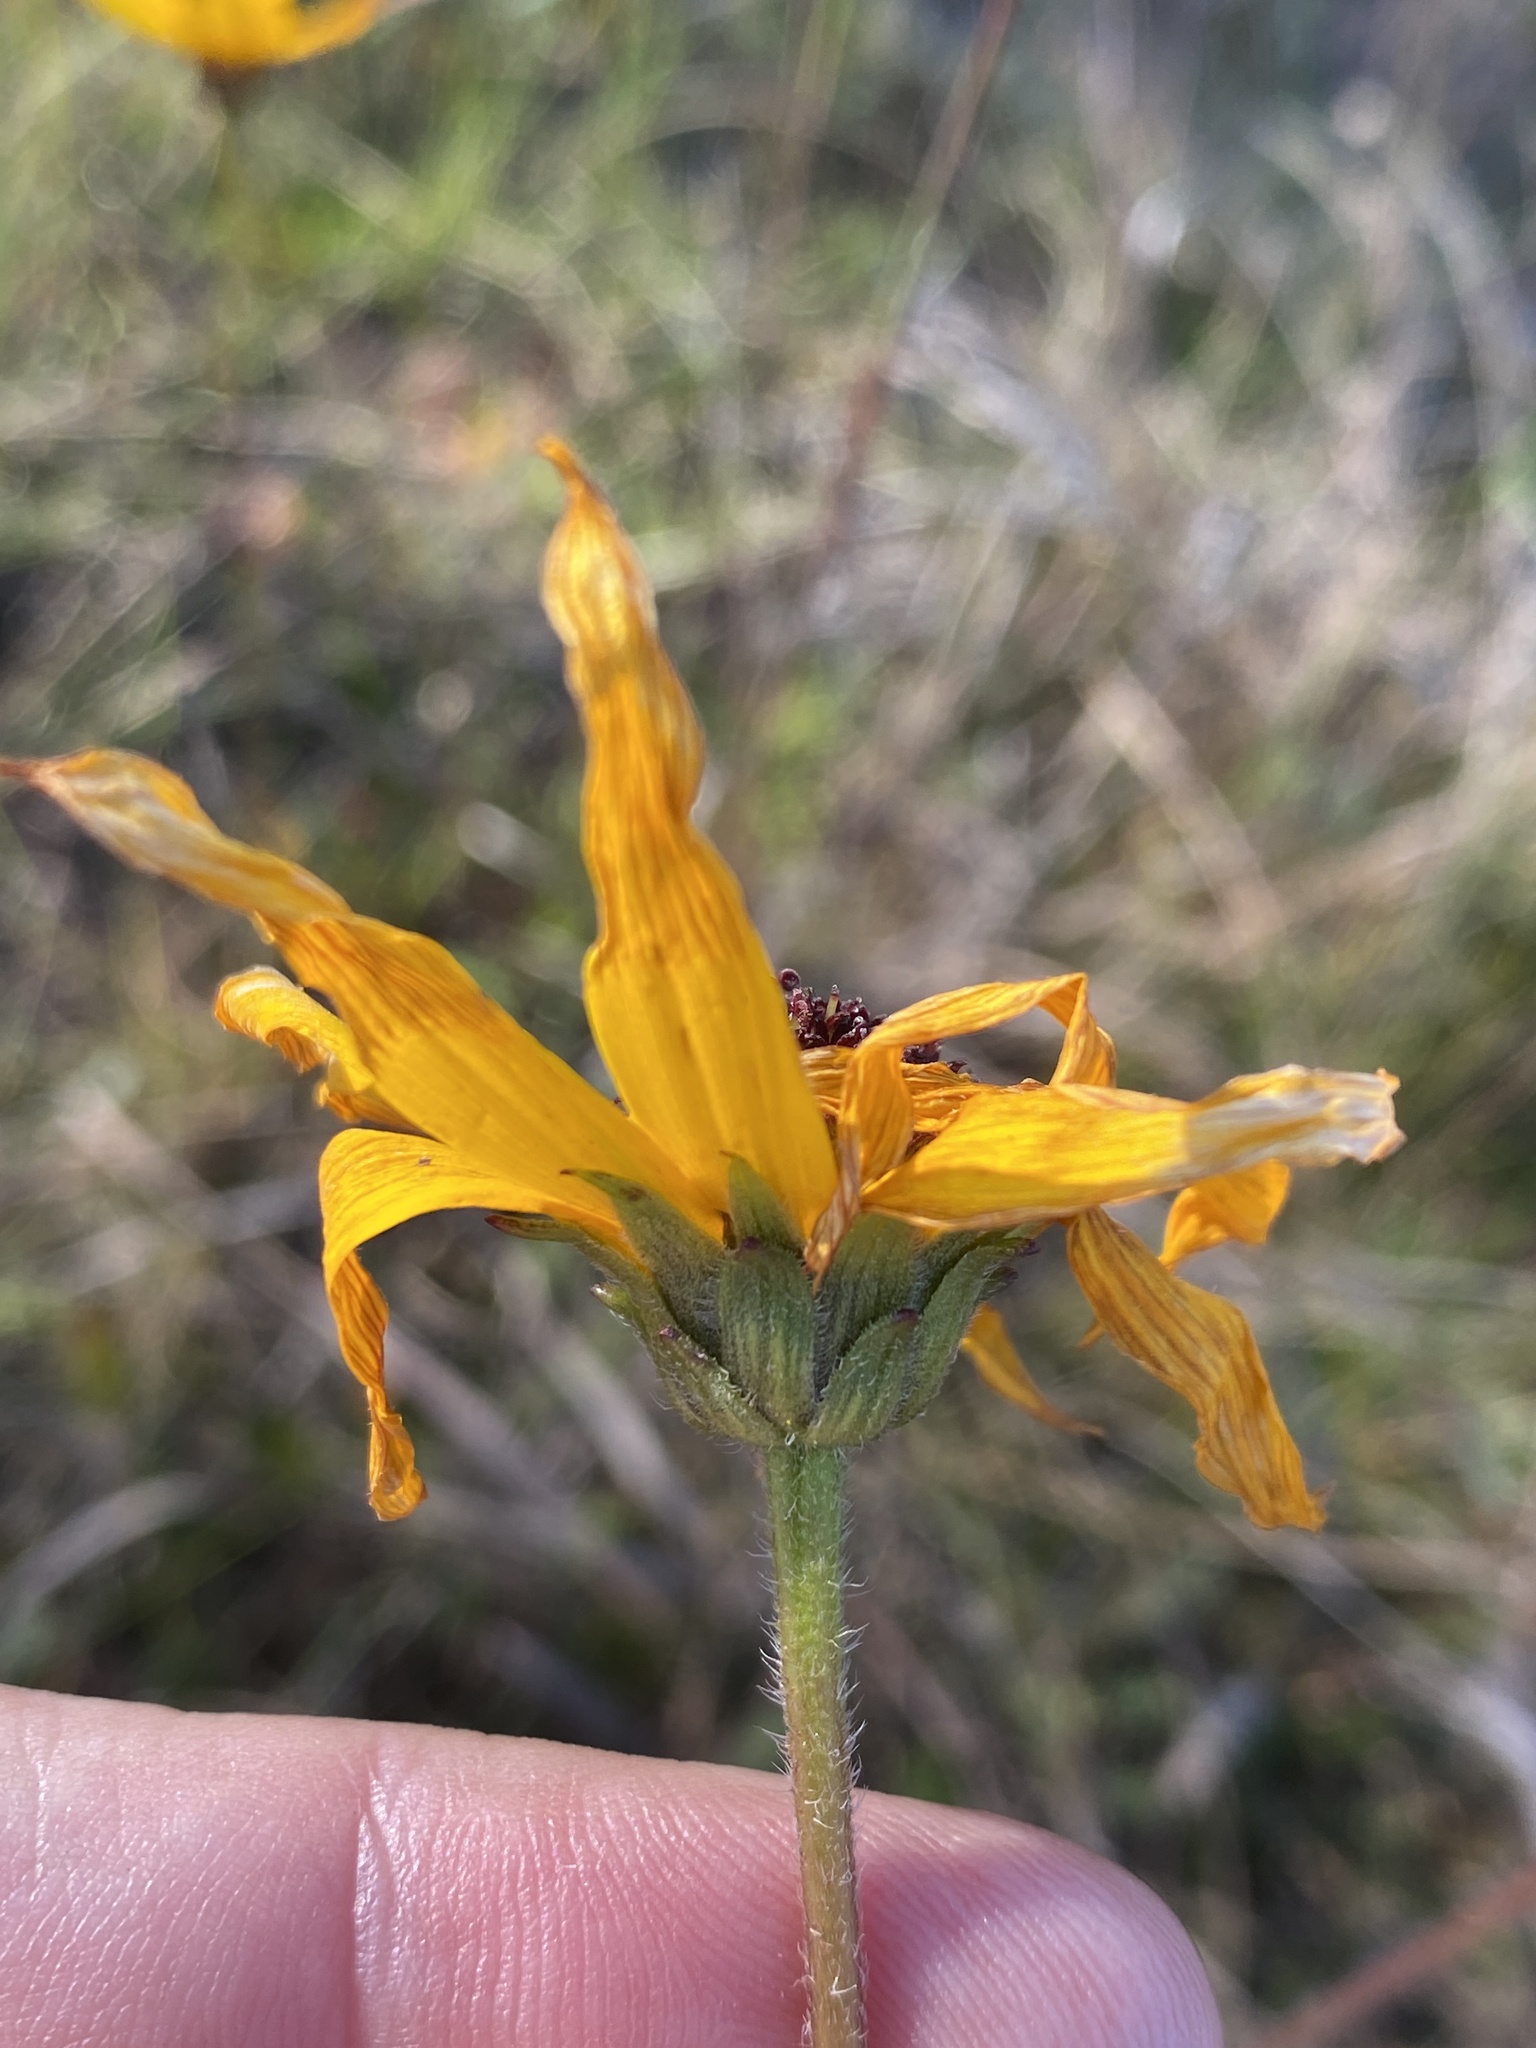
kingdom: Plantae
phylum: Tracheophyta
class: Magnoliopsida
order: Asterales
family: Asteraceae
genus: Helianthus
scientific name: Helianthus heterophyllus
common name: Wetland sunflower
